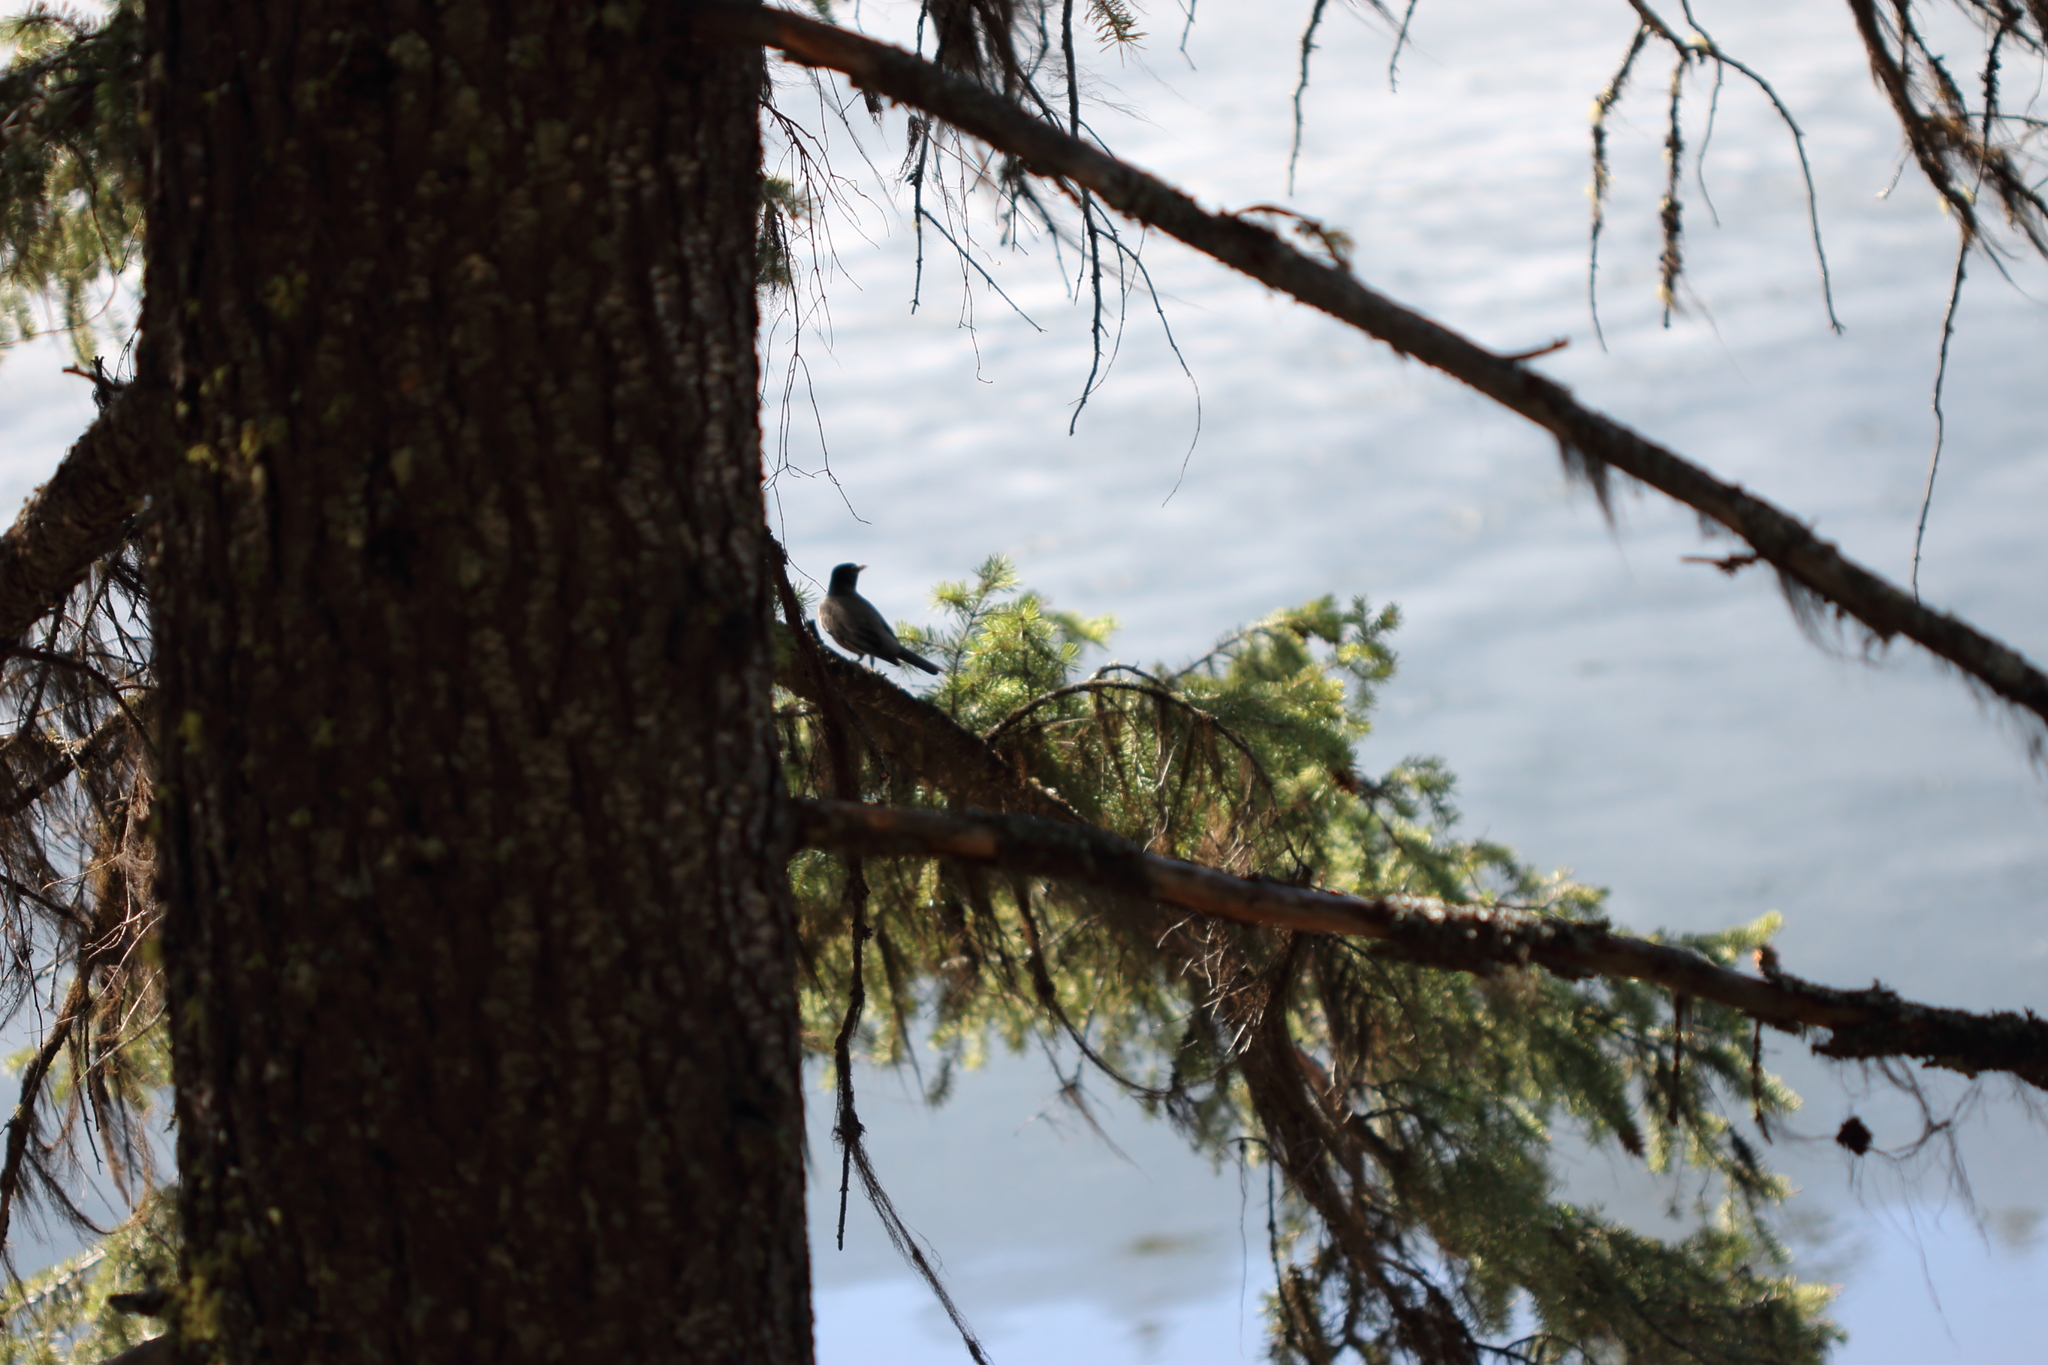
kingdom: Animalia
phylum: Chordata
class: Aves
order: Passeriformes
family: Turdidae
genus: Turdus
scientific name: Turdus migratorius
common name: American robin
